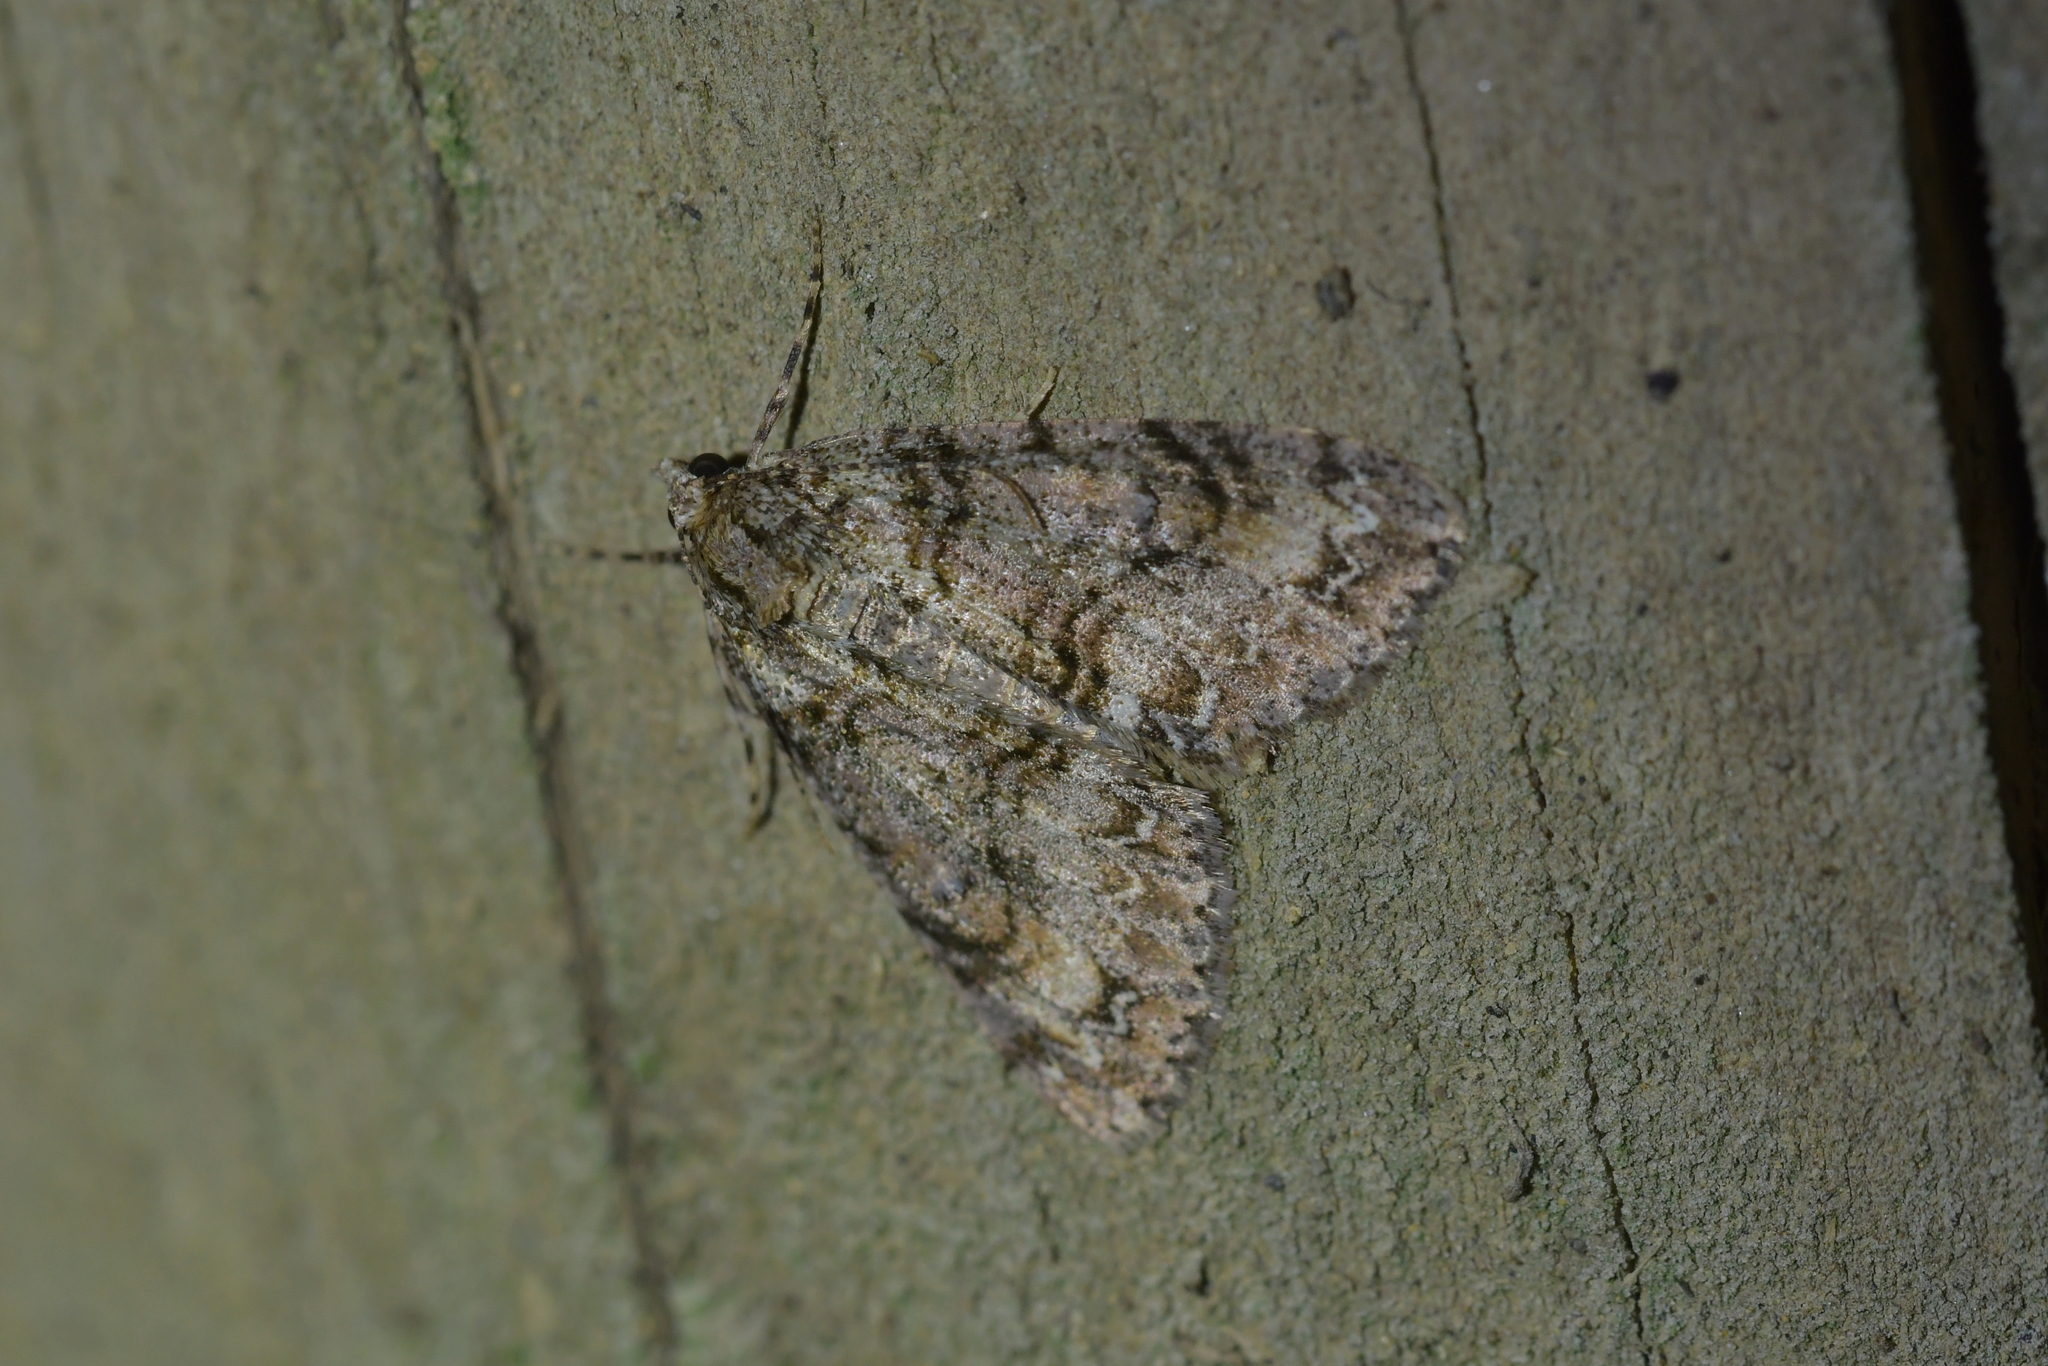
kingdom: Animalia
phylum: Arthropoda
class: Insecta
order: Lepidoptera
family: Geometridae
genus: Pseudocoremia
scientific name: Pseudocoremia suavis
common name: Common forest looper
